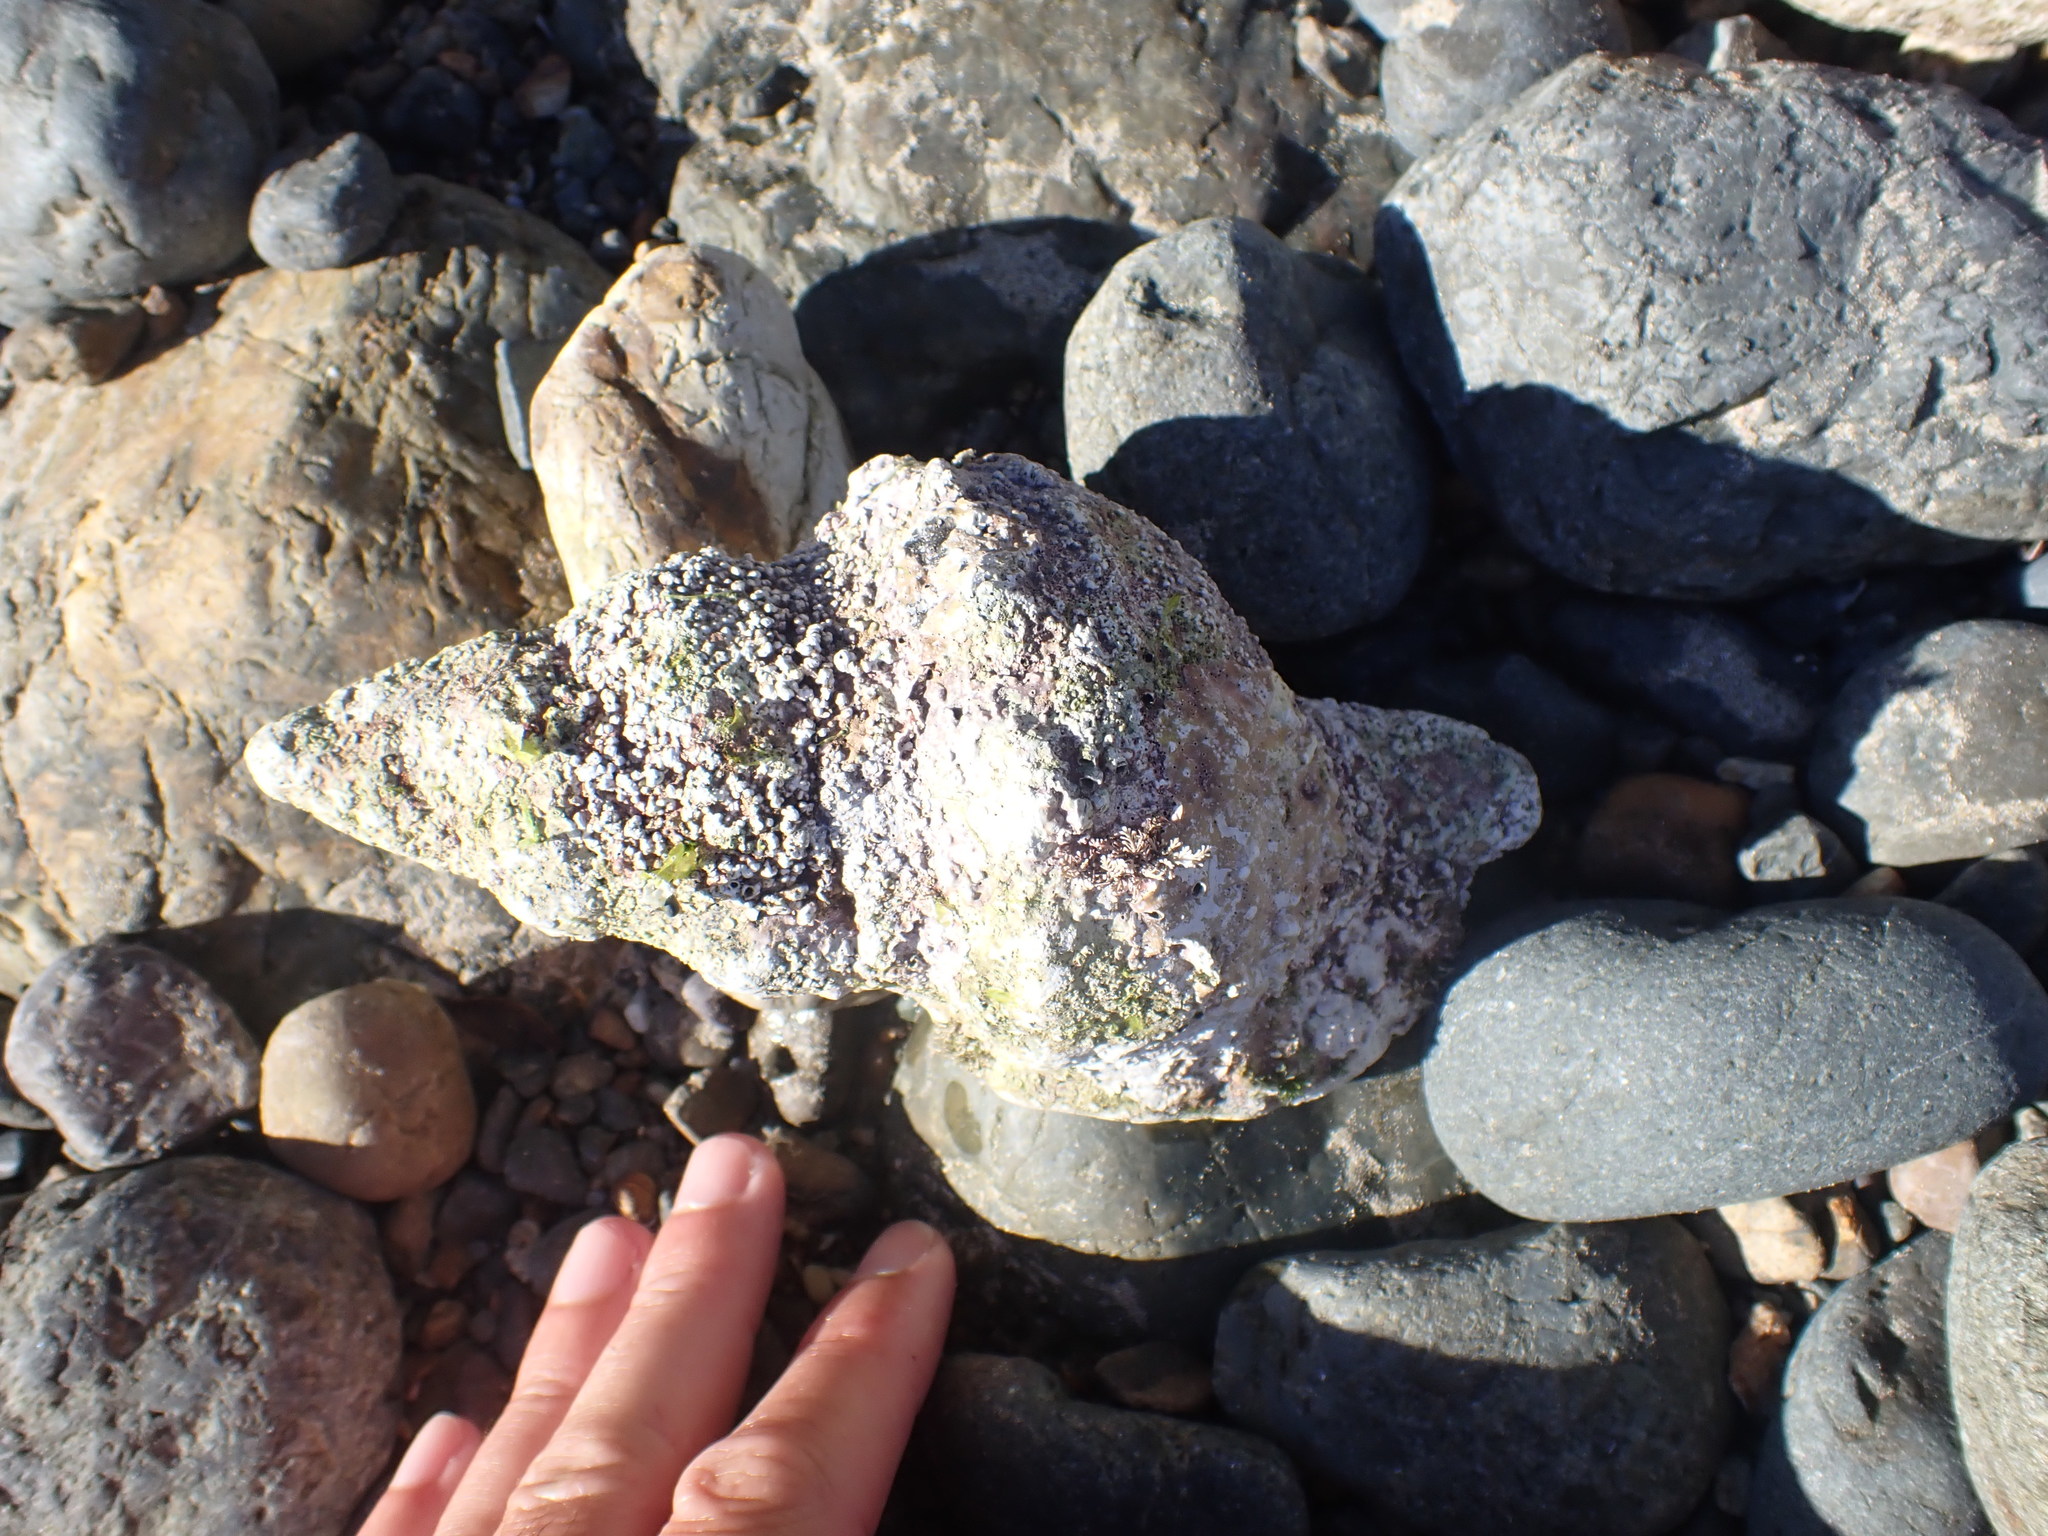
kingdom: Animalia
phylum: Mollusca
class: Gastropoda
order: Littorinimorpha
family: Charoniidae
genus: Charonia
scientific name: Charonia lampas
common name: Knobbed triton
